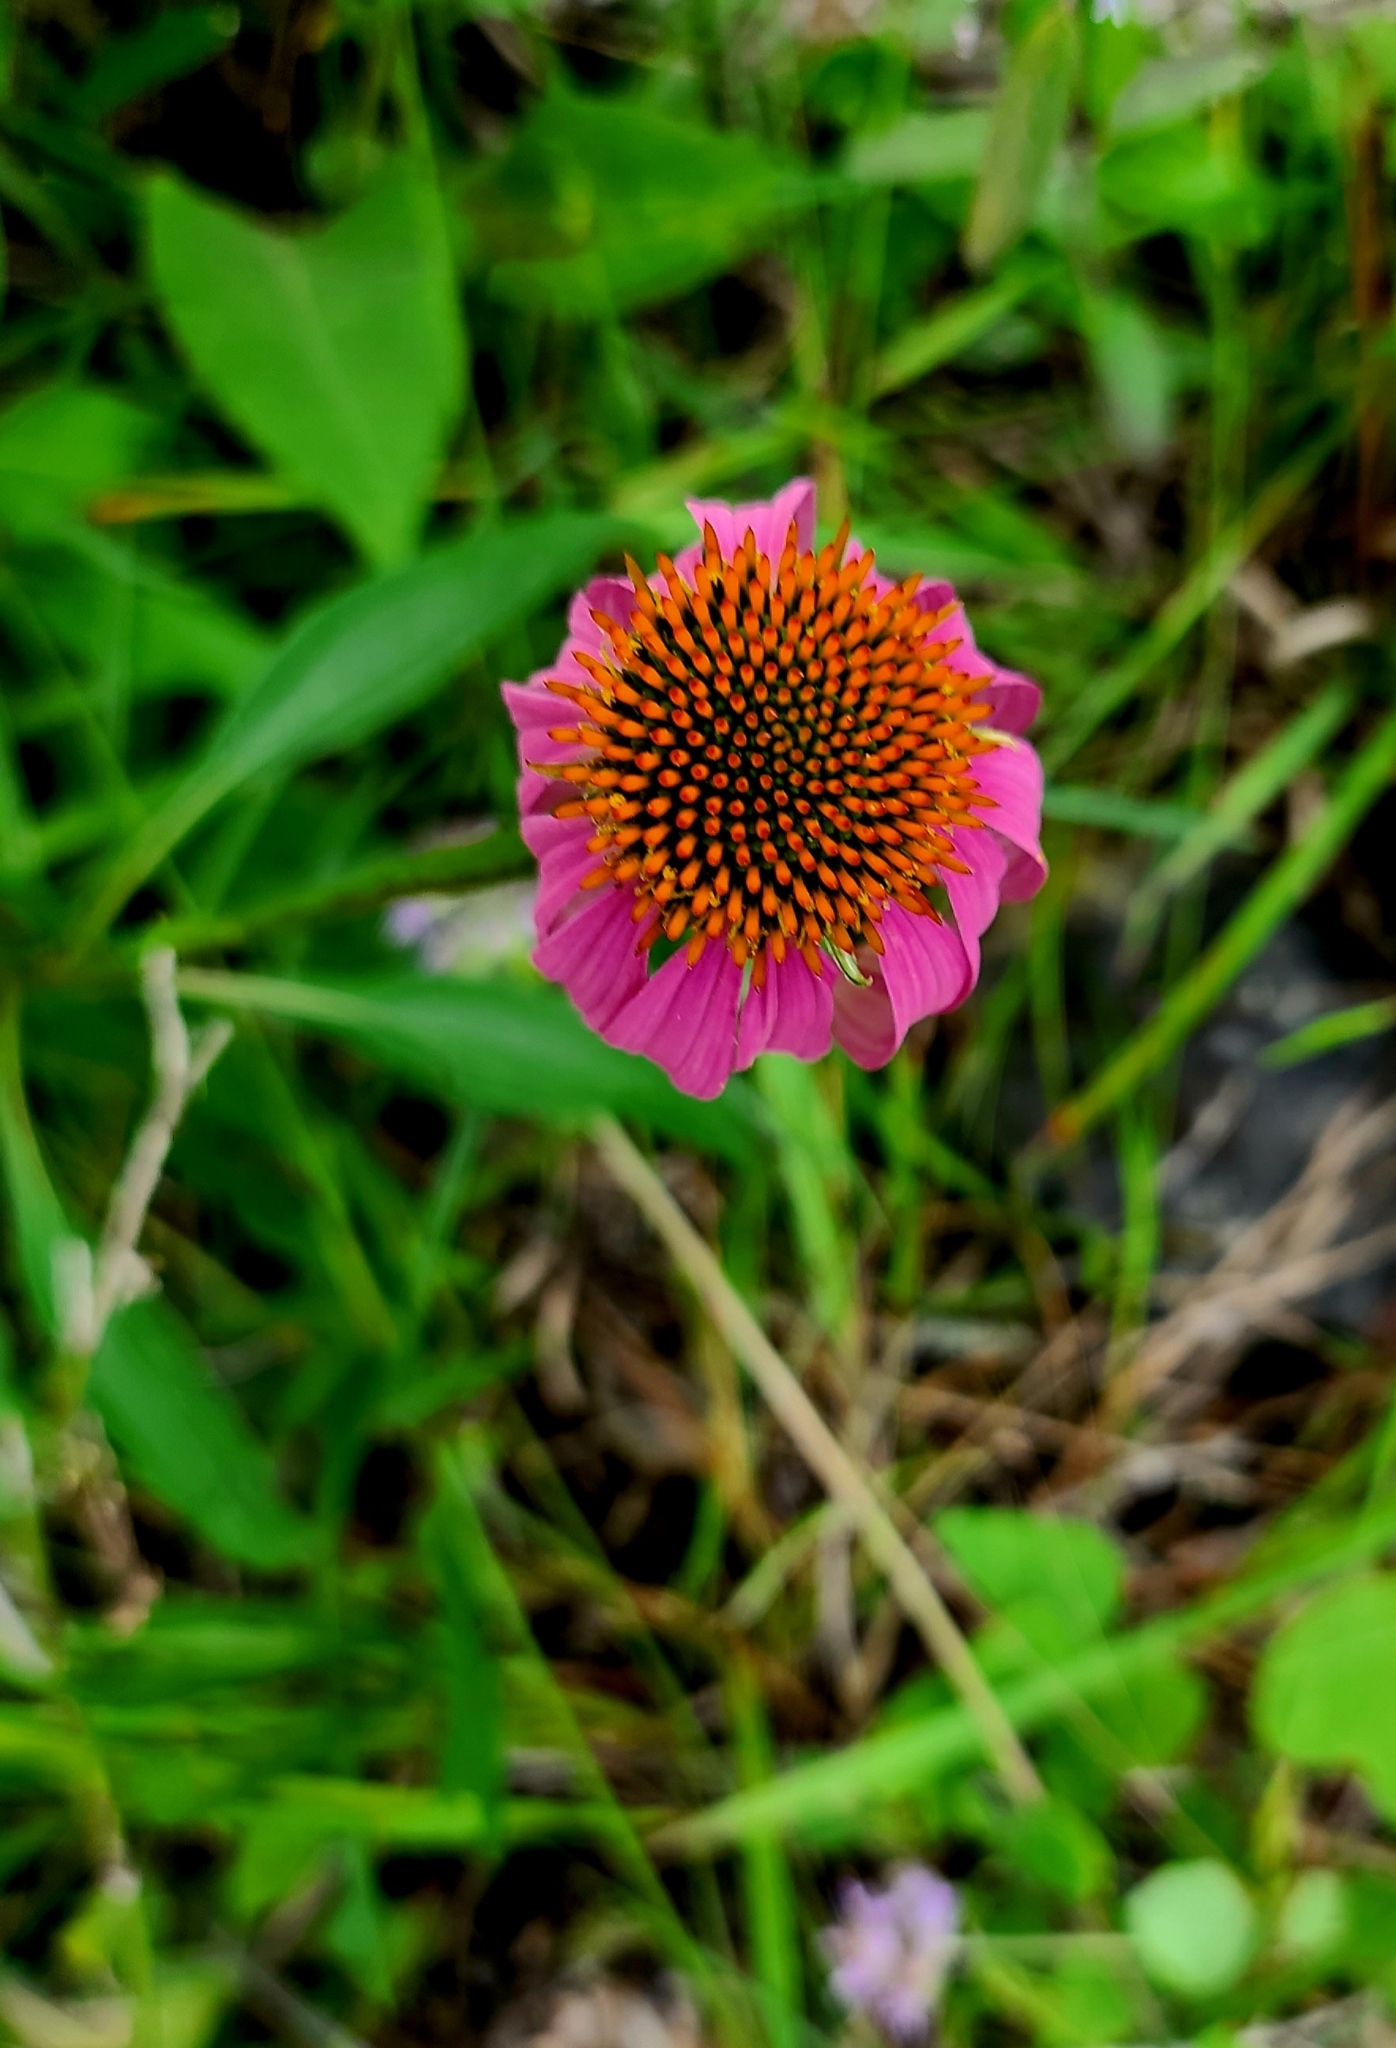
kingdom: Plantae
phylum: Tracheophyta
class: Magnoliopsida
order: Asterales
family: Asteraceae
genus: Echinacea
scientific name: Echinacea purpurea
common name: Broad-leaved purple coneflower
